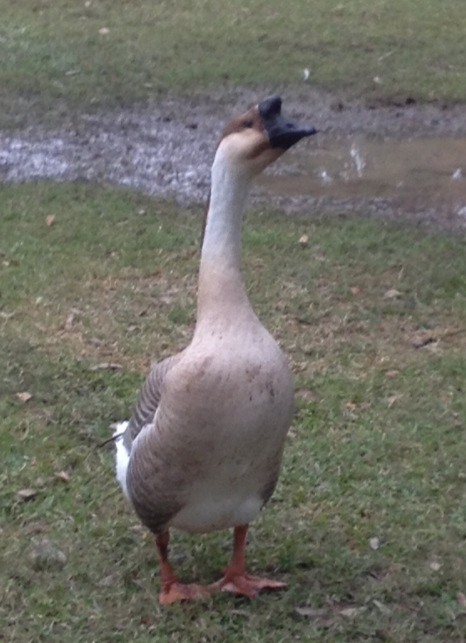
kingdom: Animalia
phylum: Chordata
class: Aves
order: Anseriformes
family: Anatidae
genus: Anser
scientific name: Anser cygnoides
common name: Swan goose
